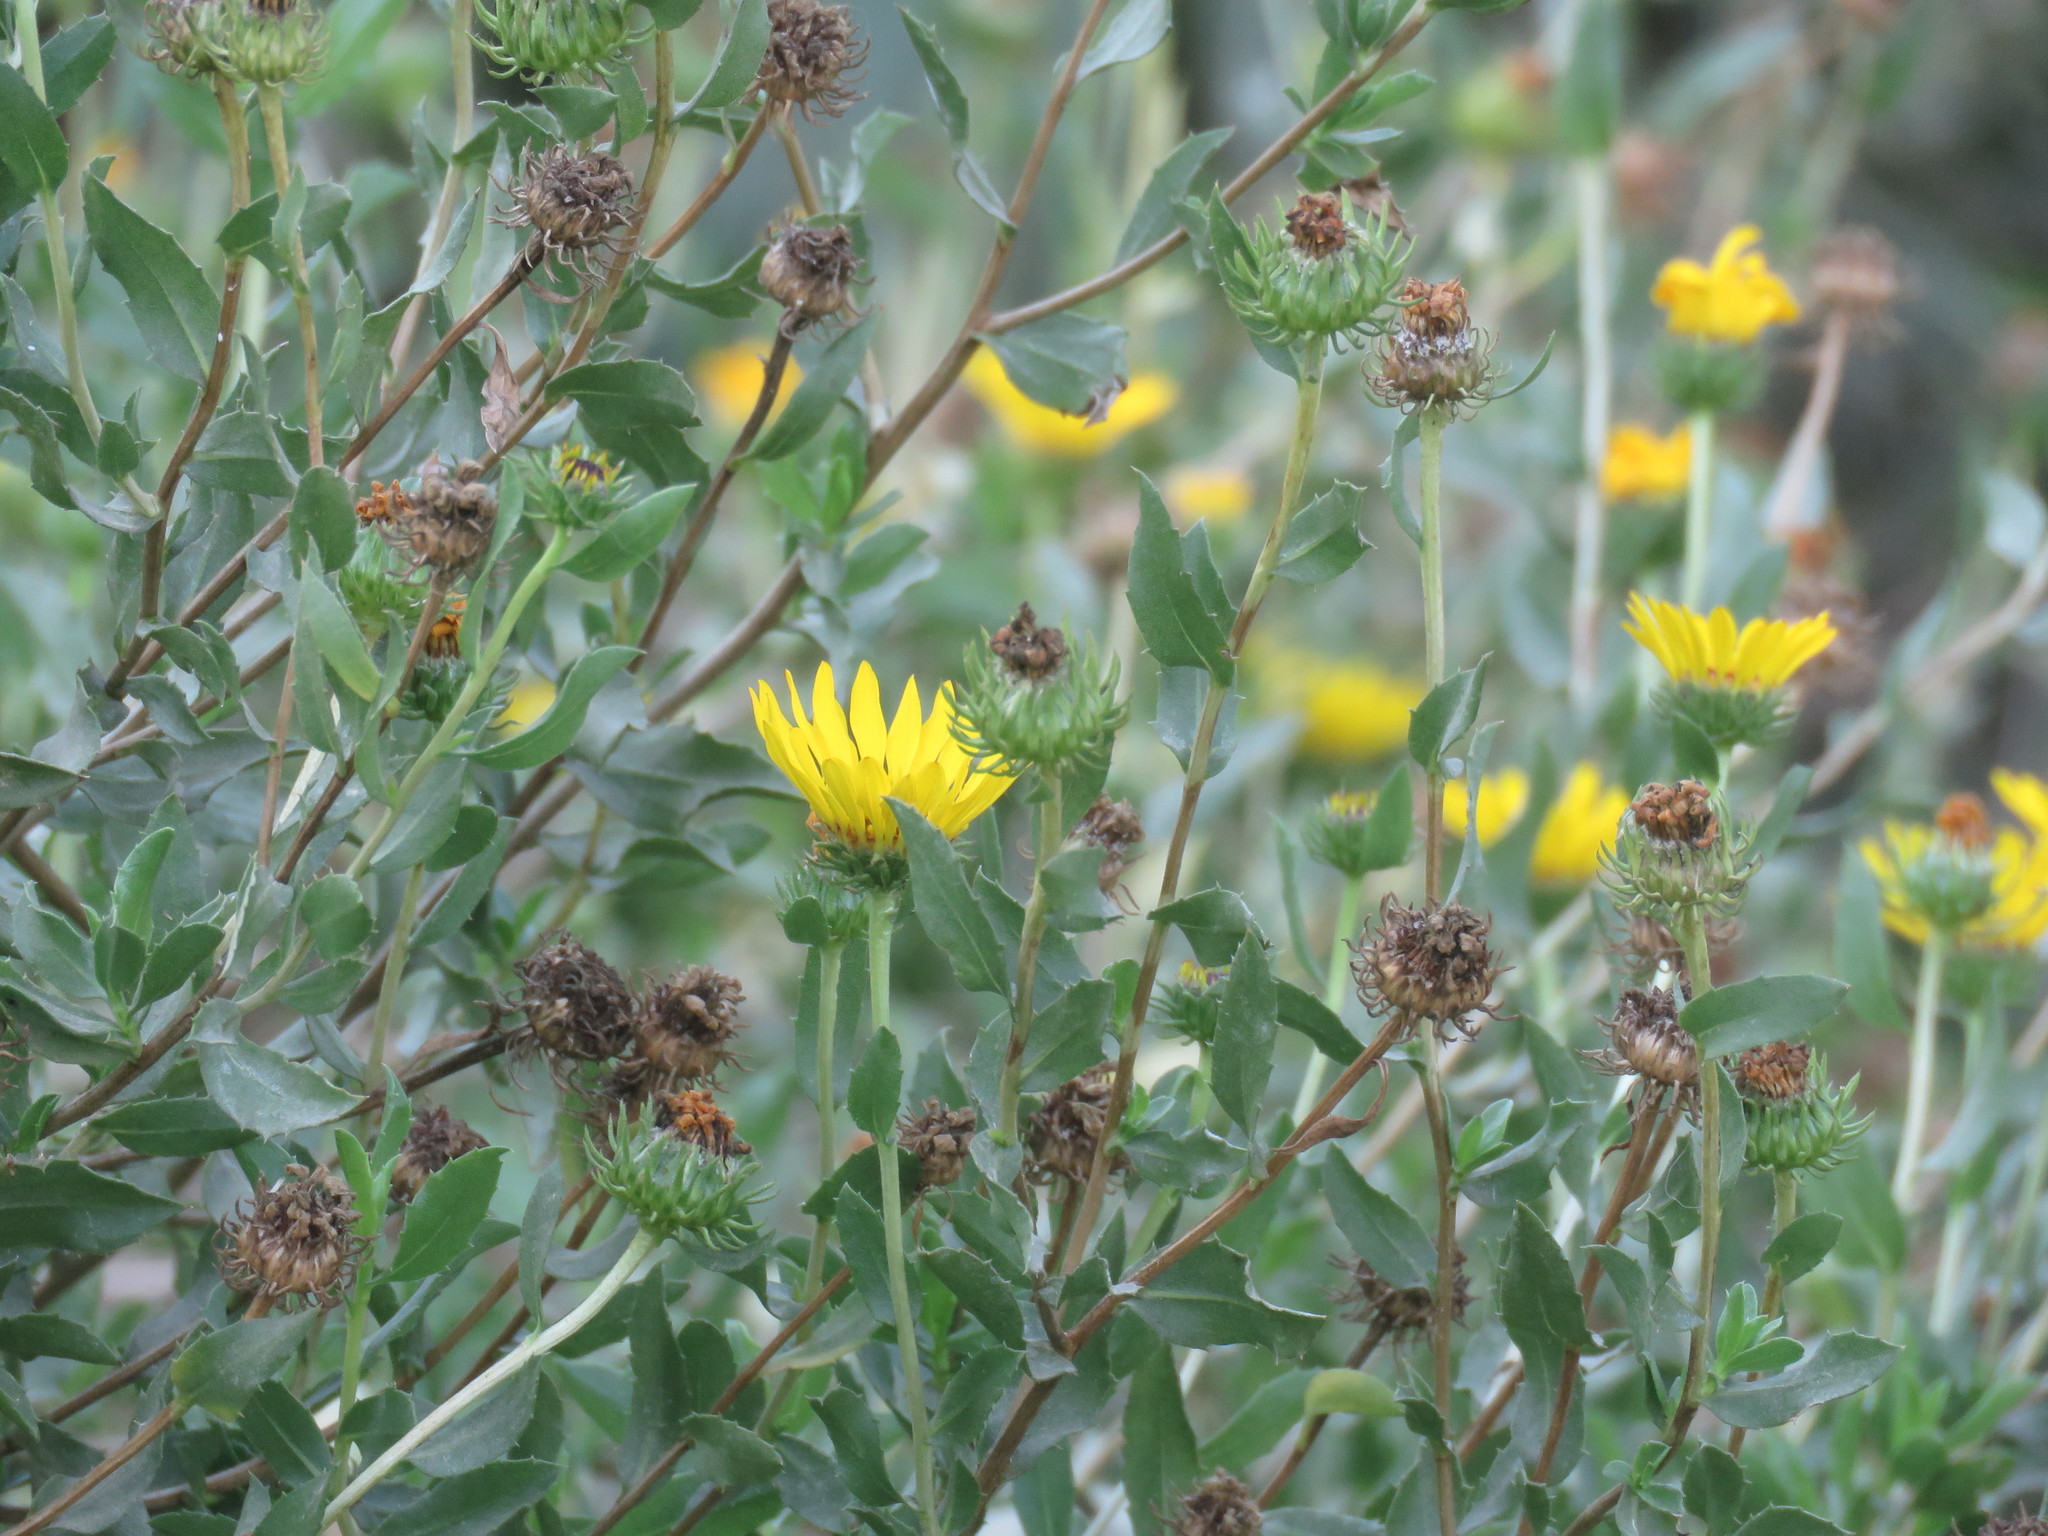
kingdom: Plantae
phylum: Tracheophyta
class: Magnoliopsida
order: Asterales
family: Asteraceae
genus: Grindelia
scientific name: Grindelia pulchella
